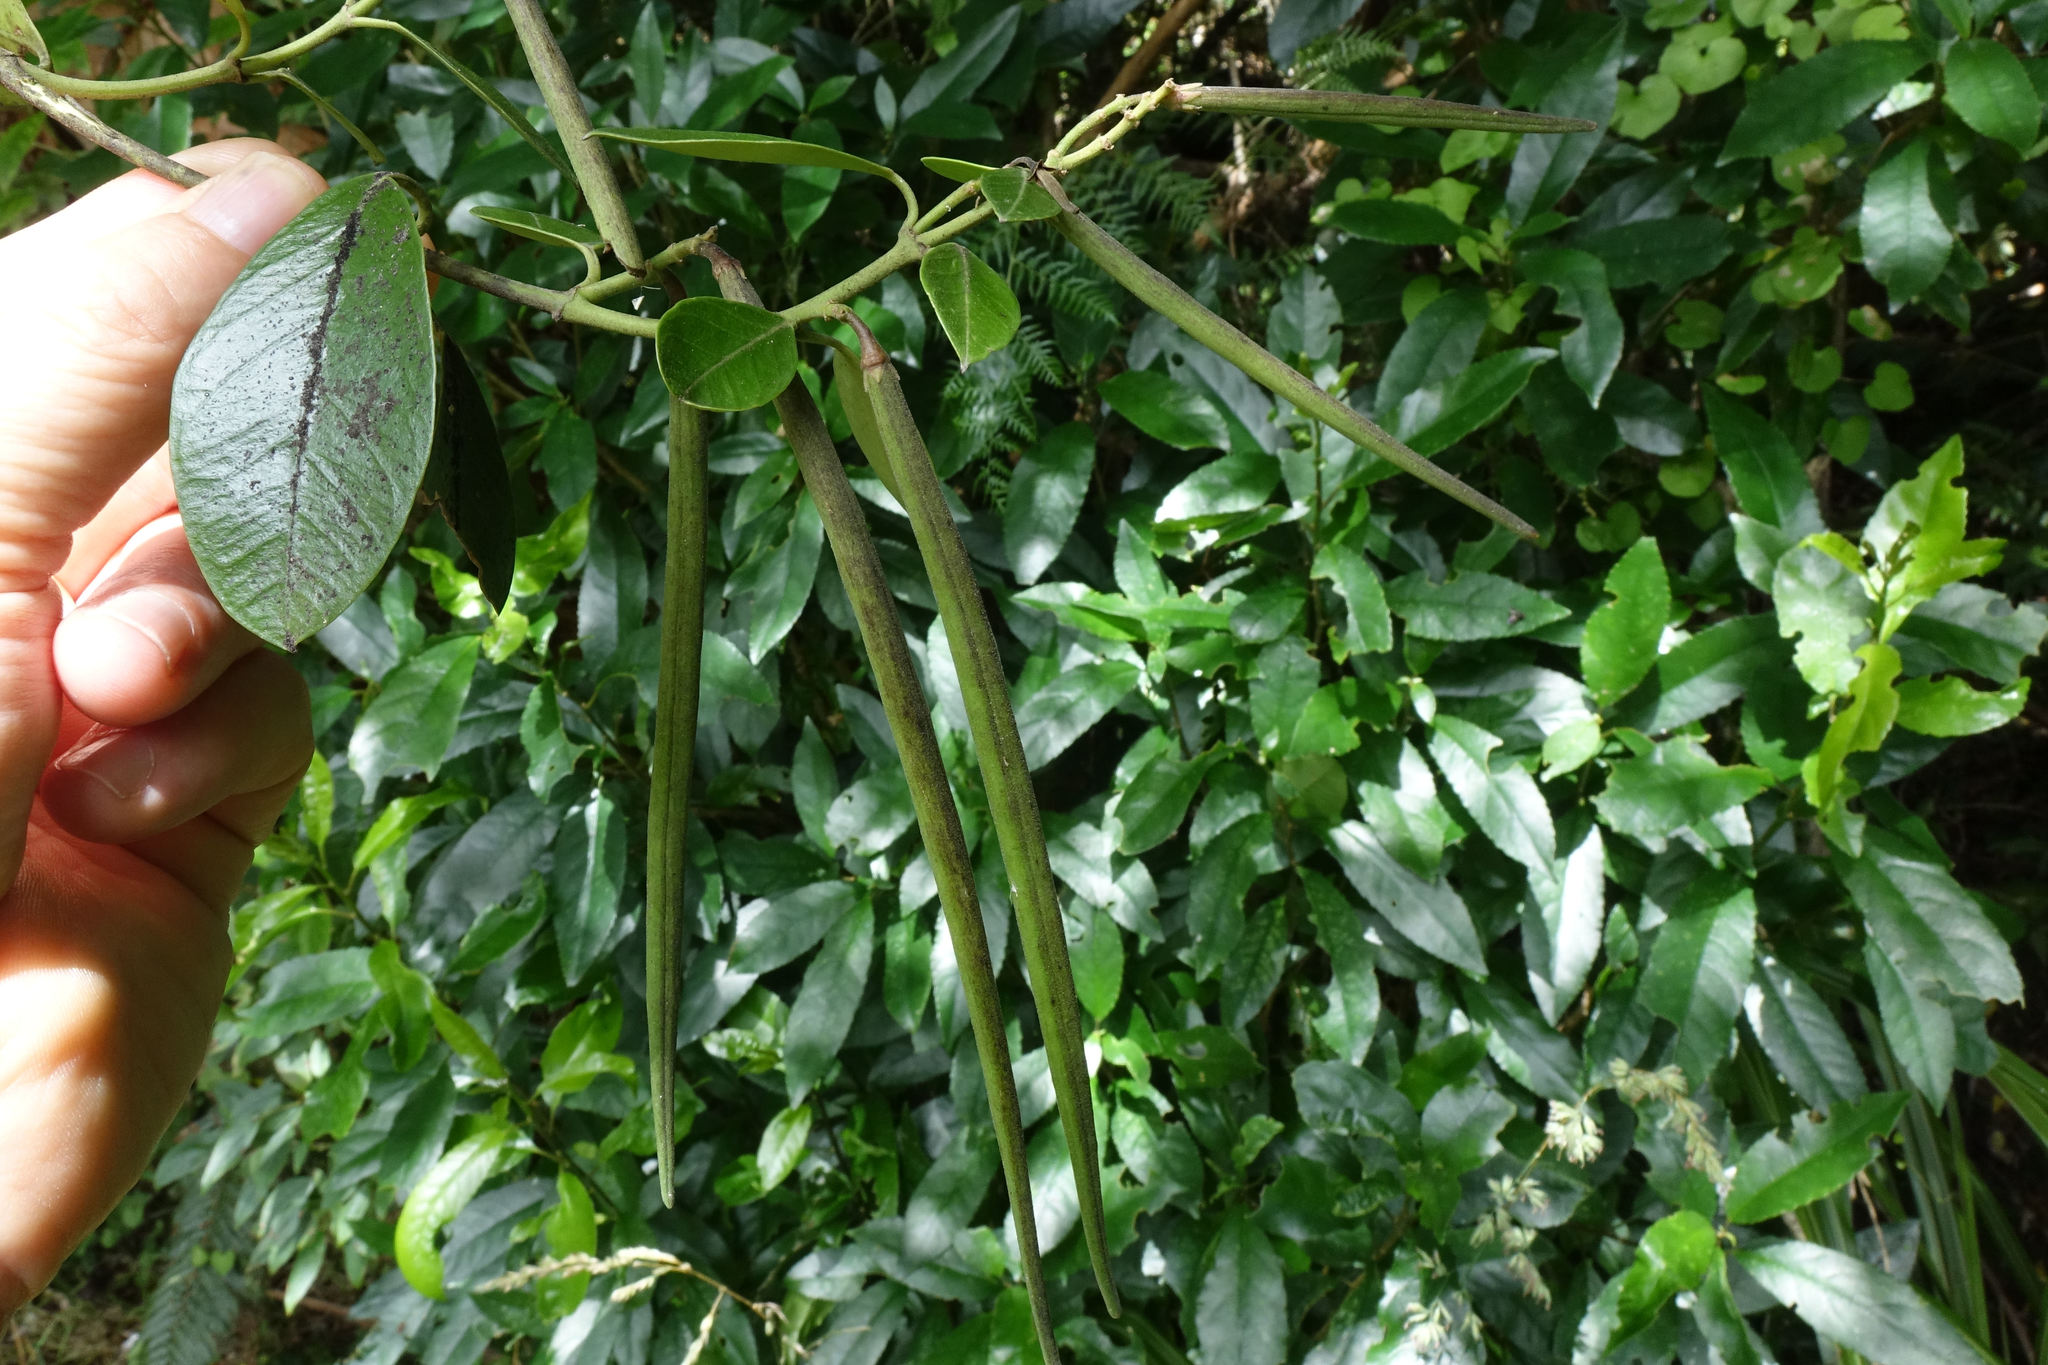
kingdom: Plantae
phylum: Tracheophyta
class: Magnoliopsida
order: Gentianales
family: Apocynaceae
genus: Parsonsia
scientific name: Parsonsia heterophylla
